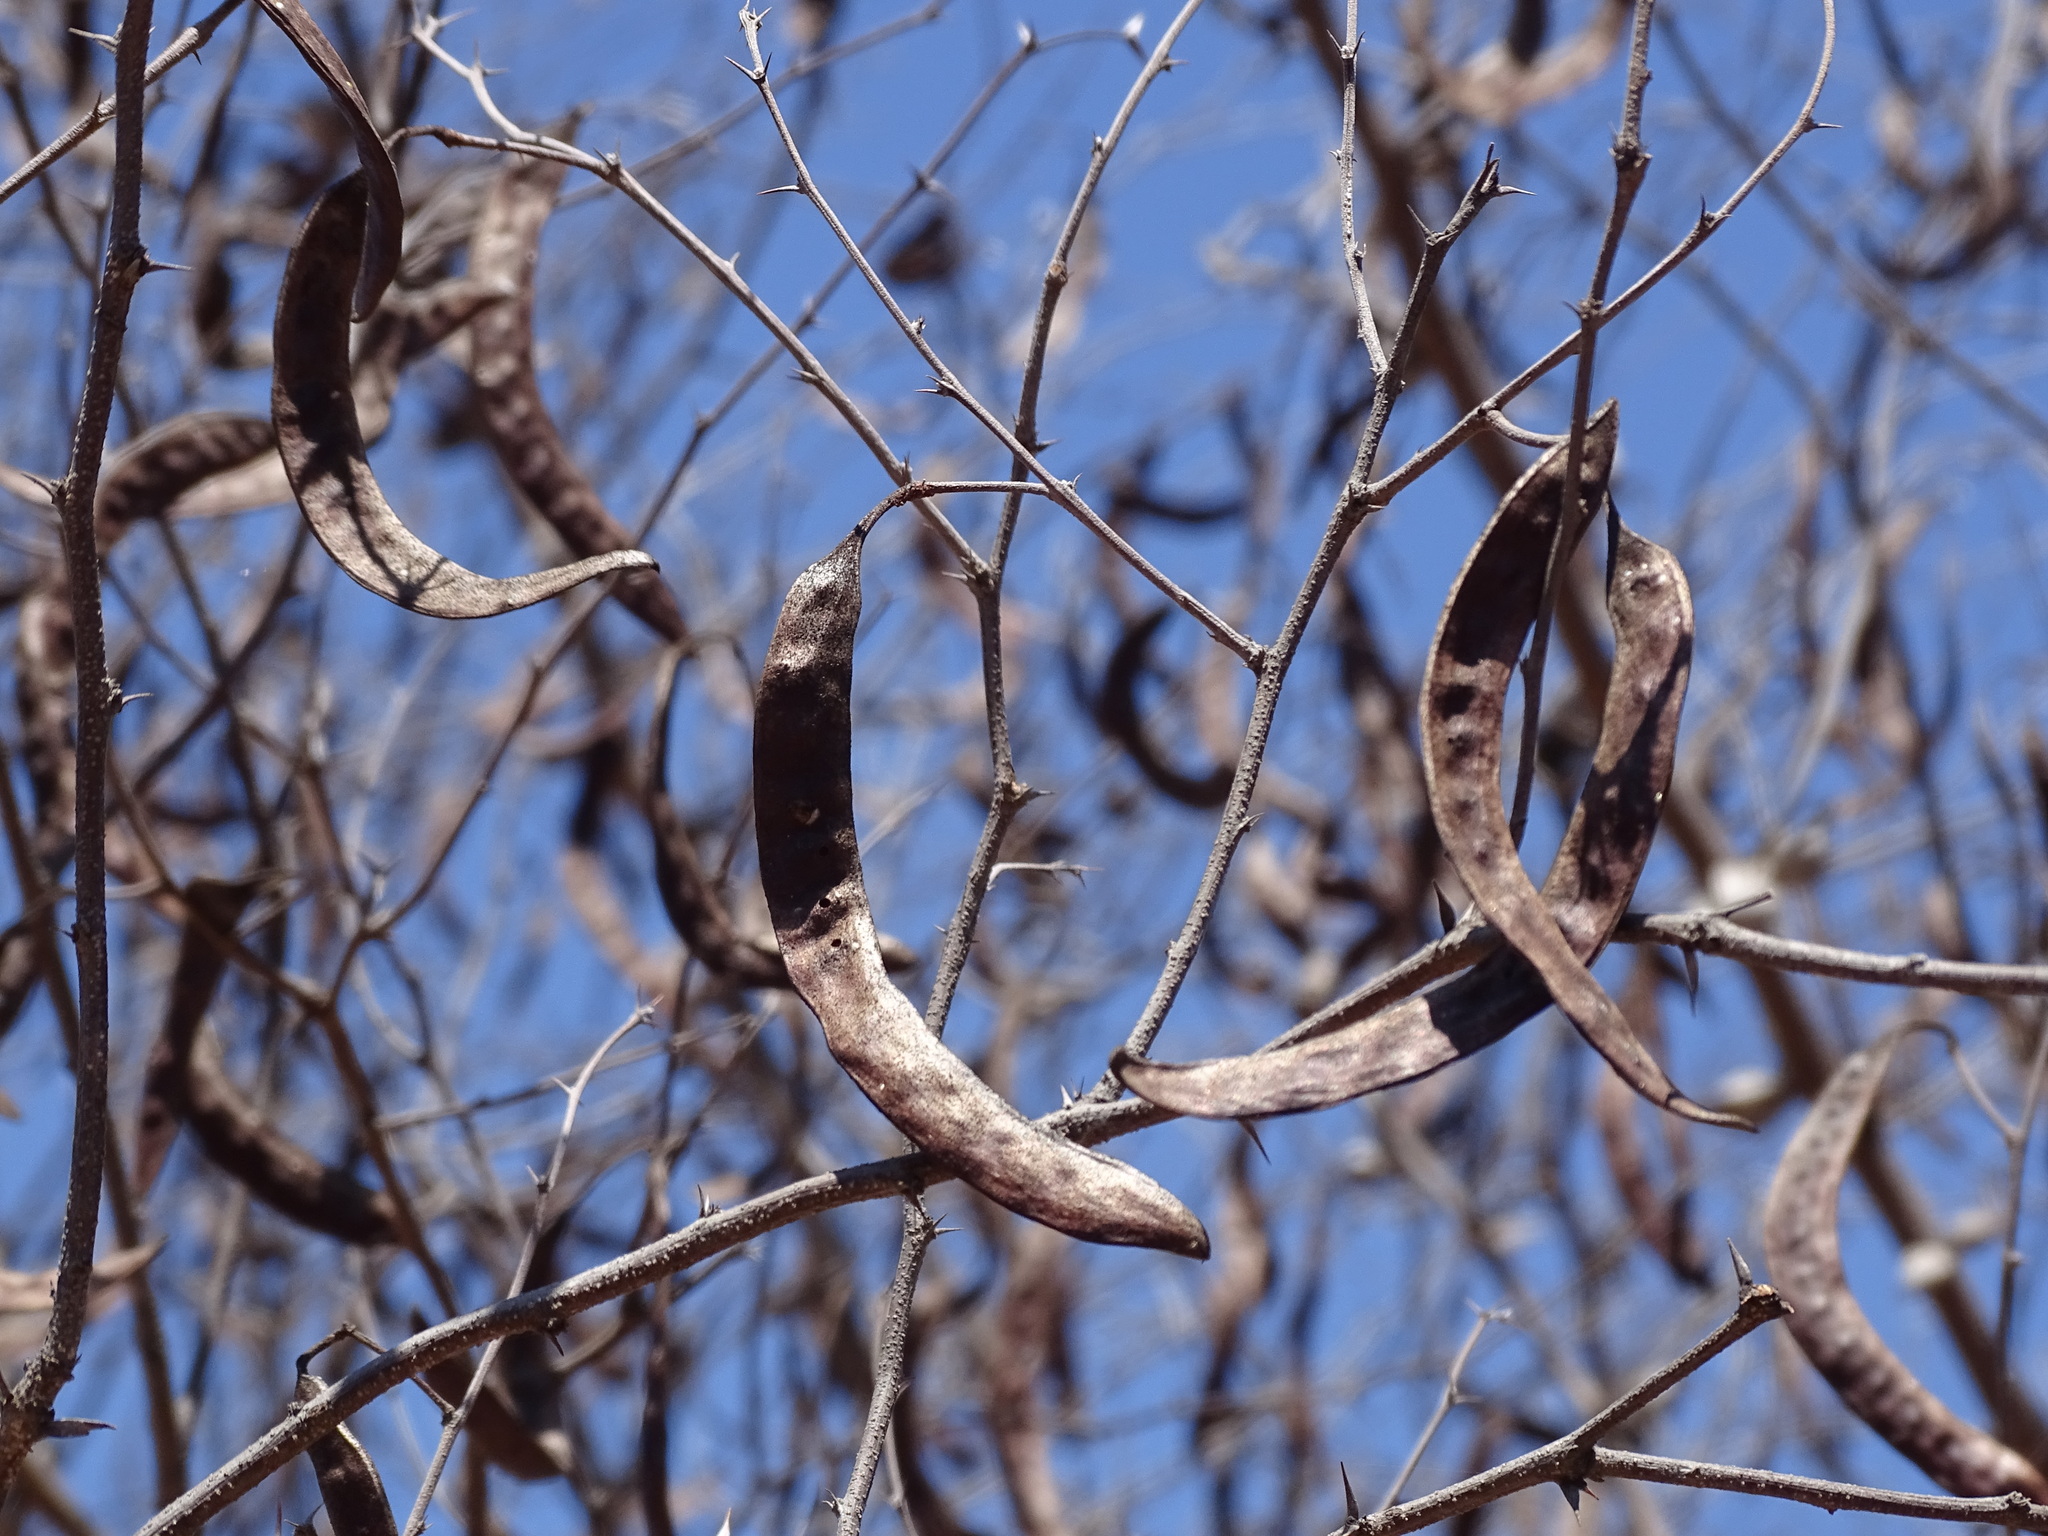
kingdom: Plantae
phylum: Tracheophyta
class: Magnoliopsida
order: Fabales
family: Fabaceae
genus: Vachellia
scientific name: Vachellia campechiana
